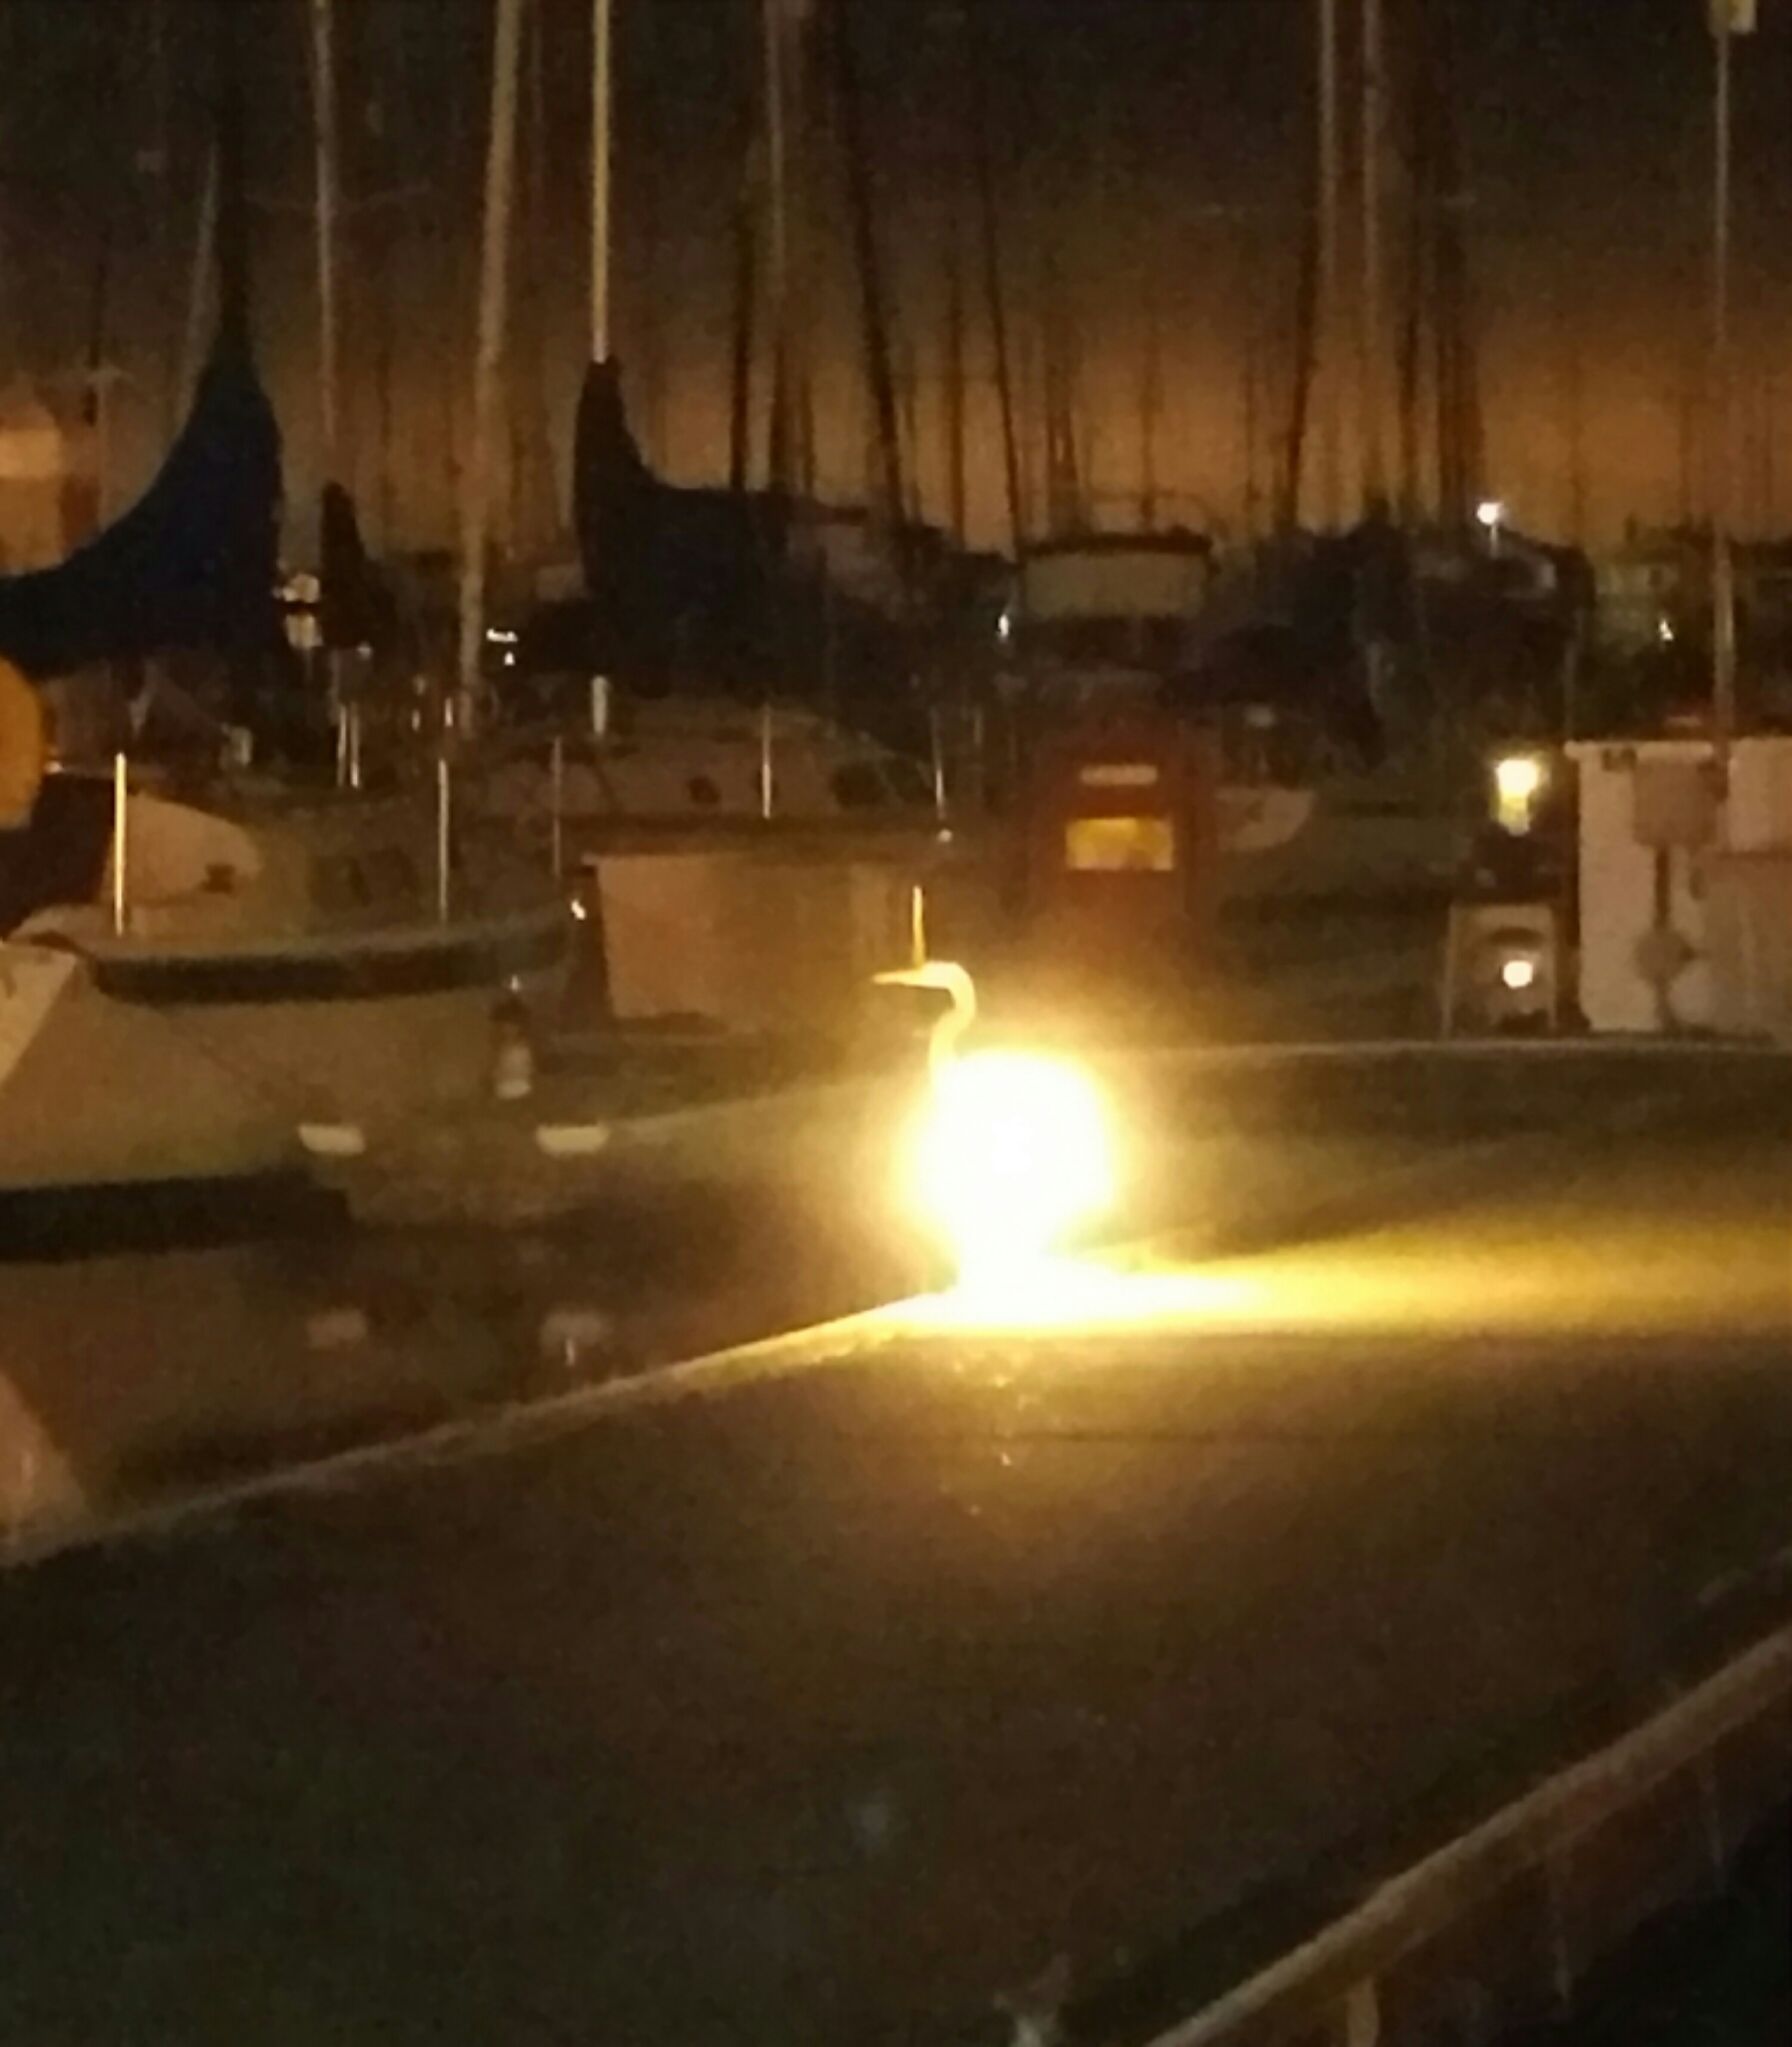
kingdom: Animalia
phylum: Chordata
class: Aves
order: Pelecaniformes
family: Ardeidae
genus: Ardea
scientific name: Ardea herodias
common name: Great blue heron
